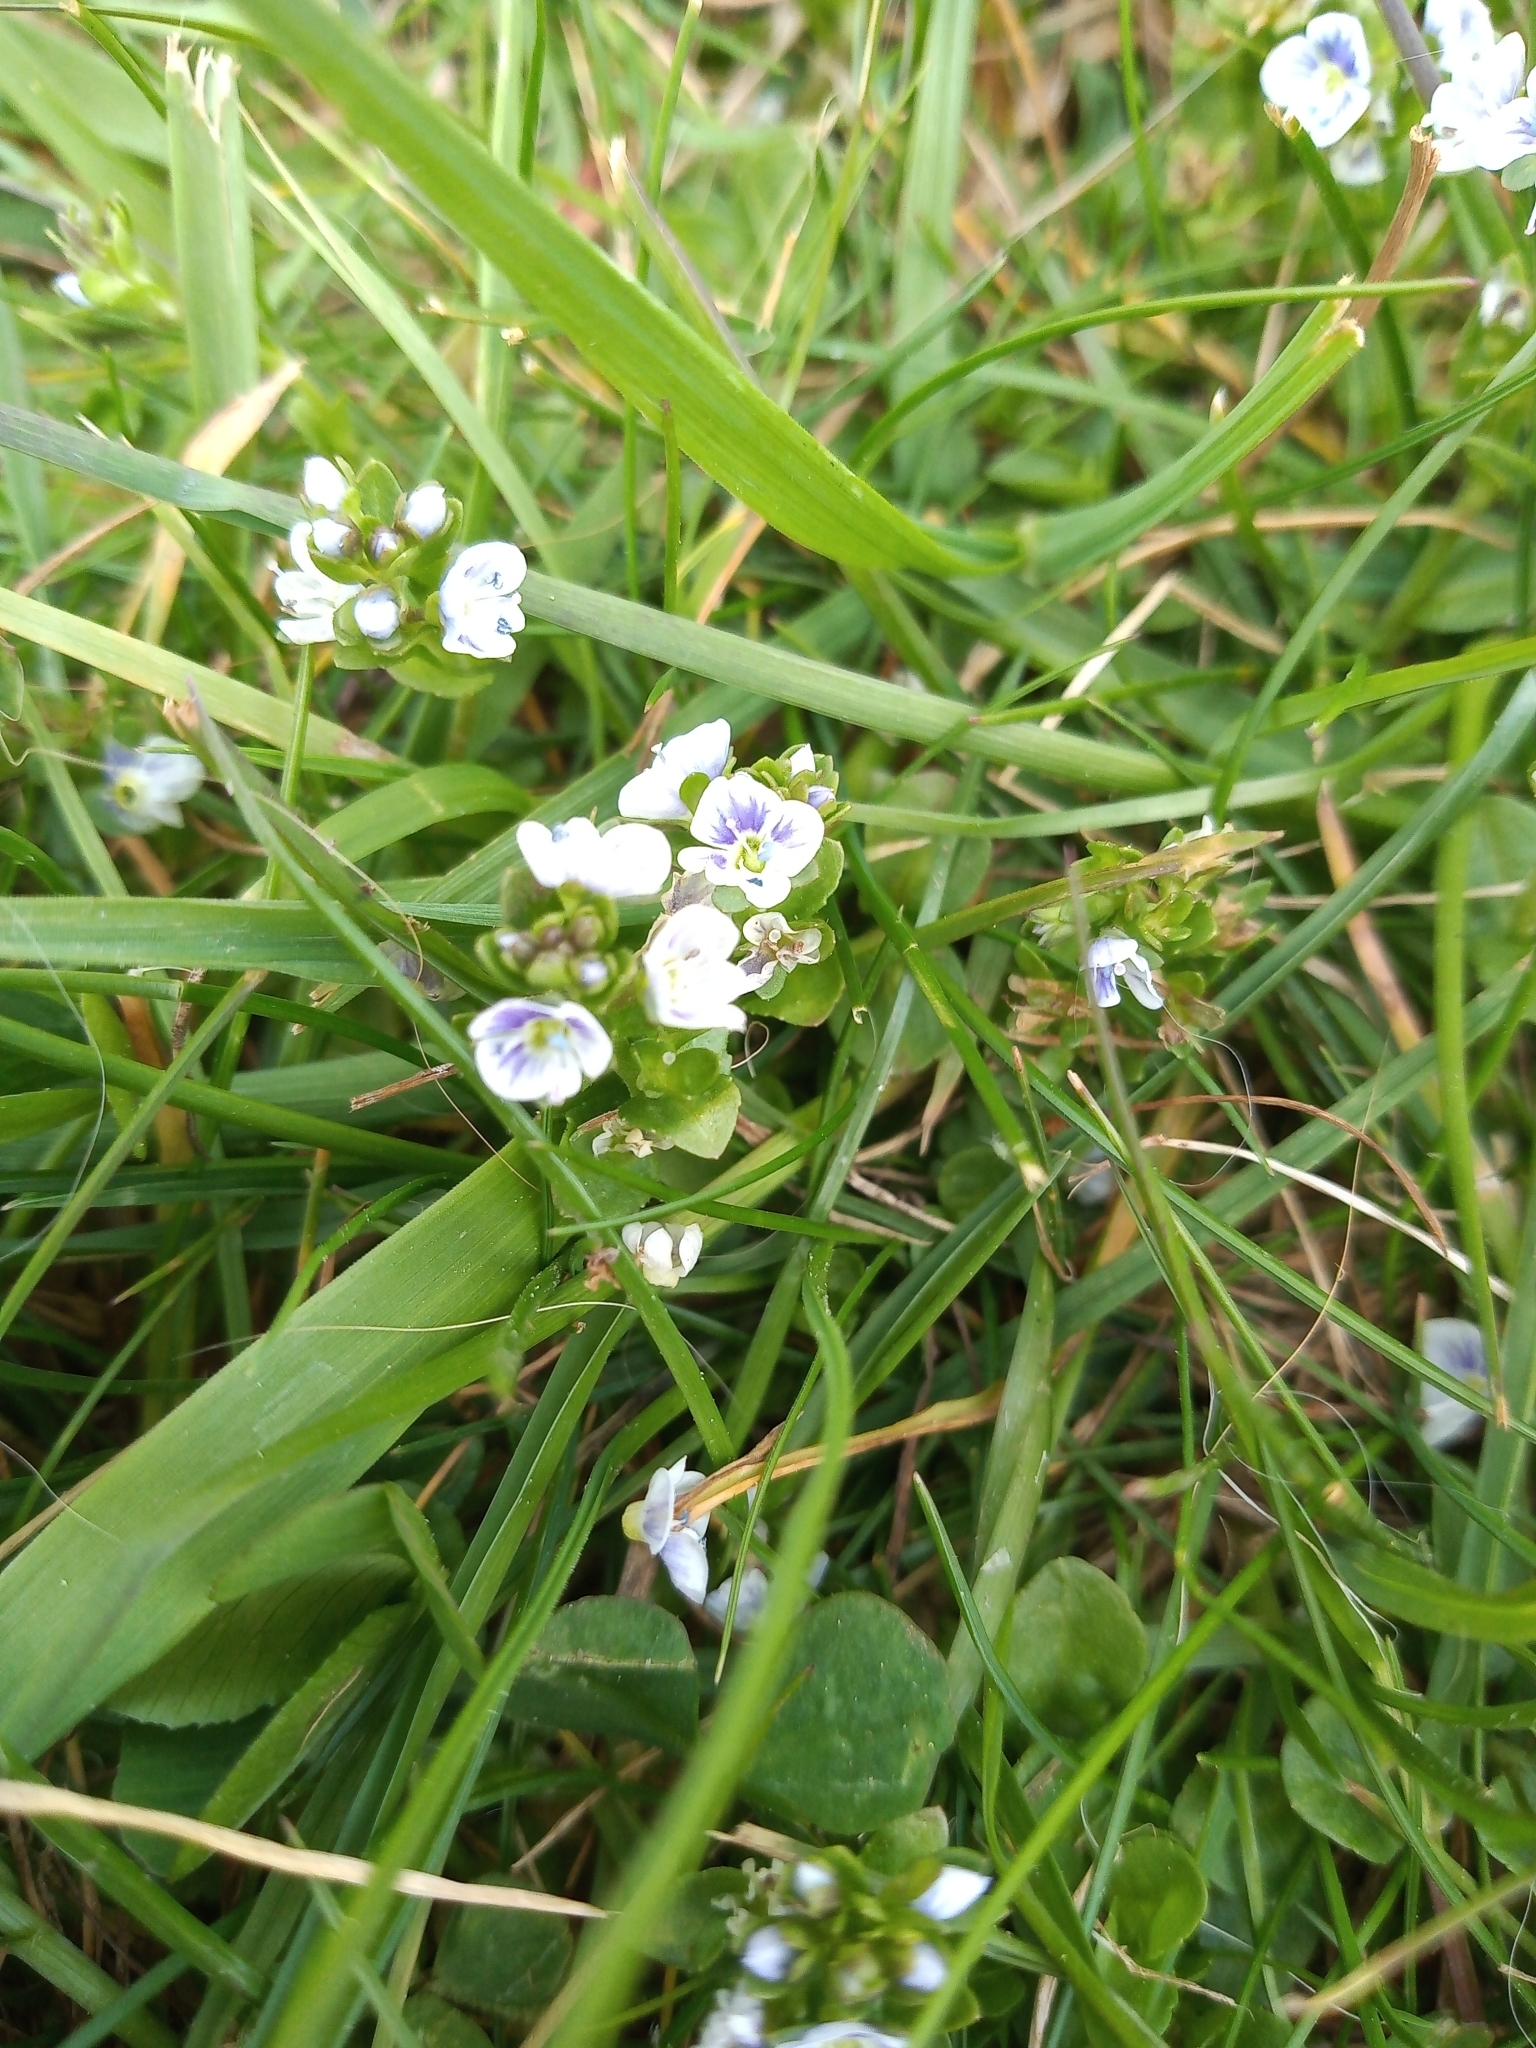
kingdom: Plantae
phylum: Tracheophyta
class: Magnoliopsida
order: Lamiales
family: Plantaginaceae
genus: Veronica
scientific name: Veronica serpyllifolia
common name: Thyme-leaved speedwell
